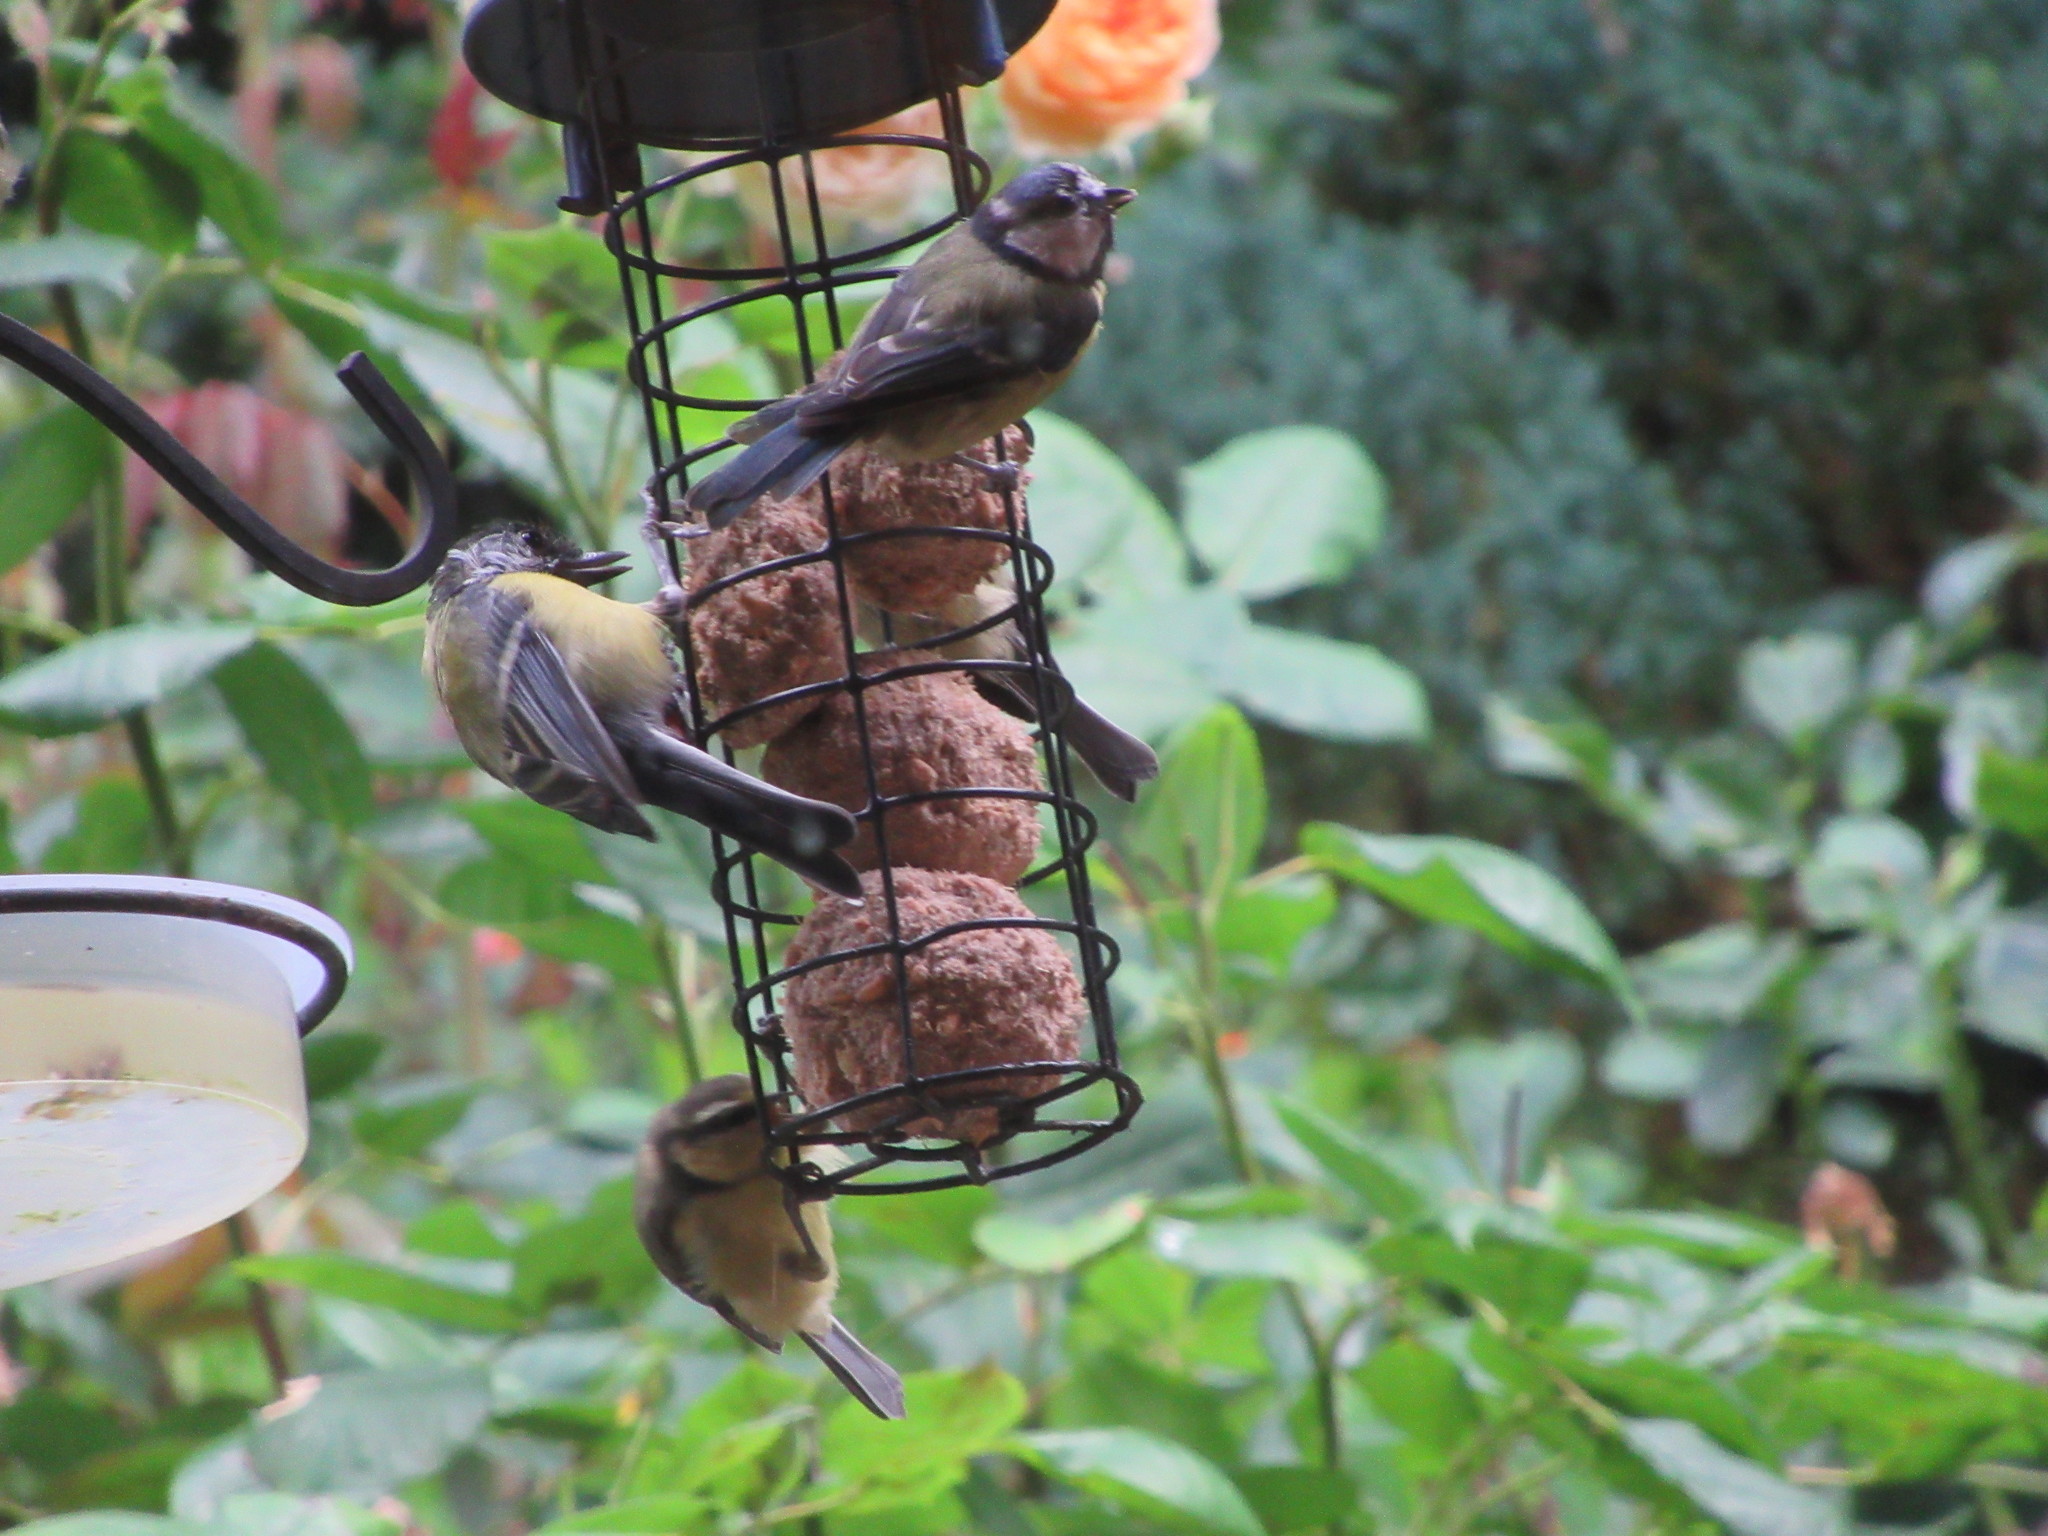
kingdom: Animalia
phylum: Chordata
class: Aves
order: Passeriformes
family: Paridae
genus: Cyanistes
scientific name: Cyanistes caeruleus
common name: Eurasian blue tit
